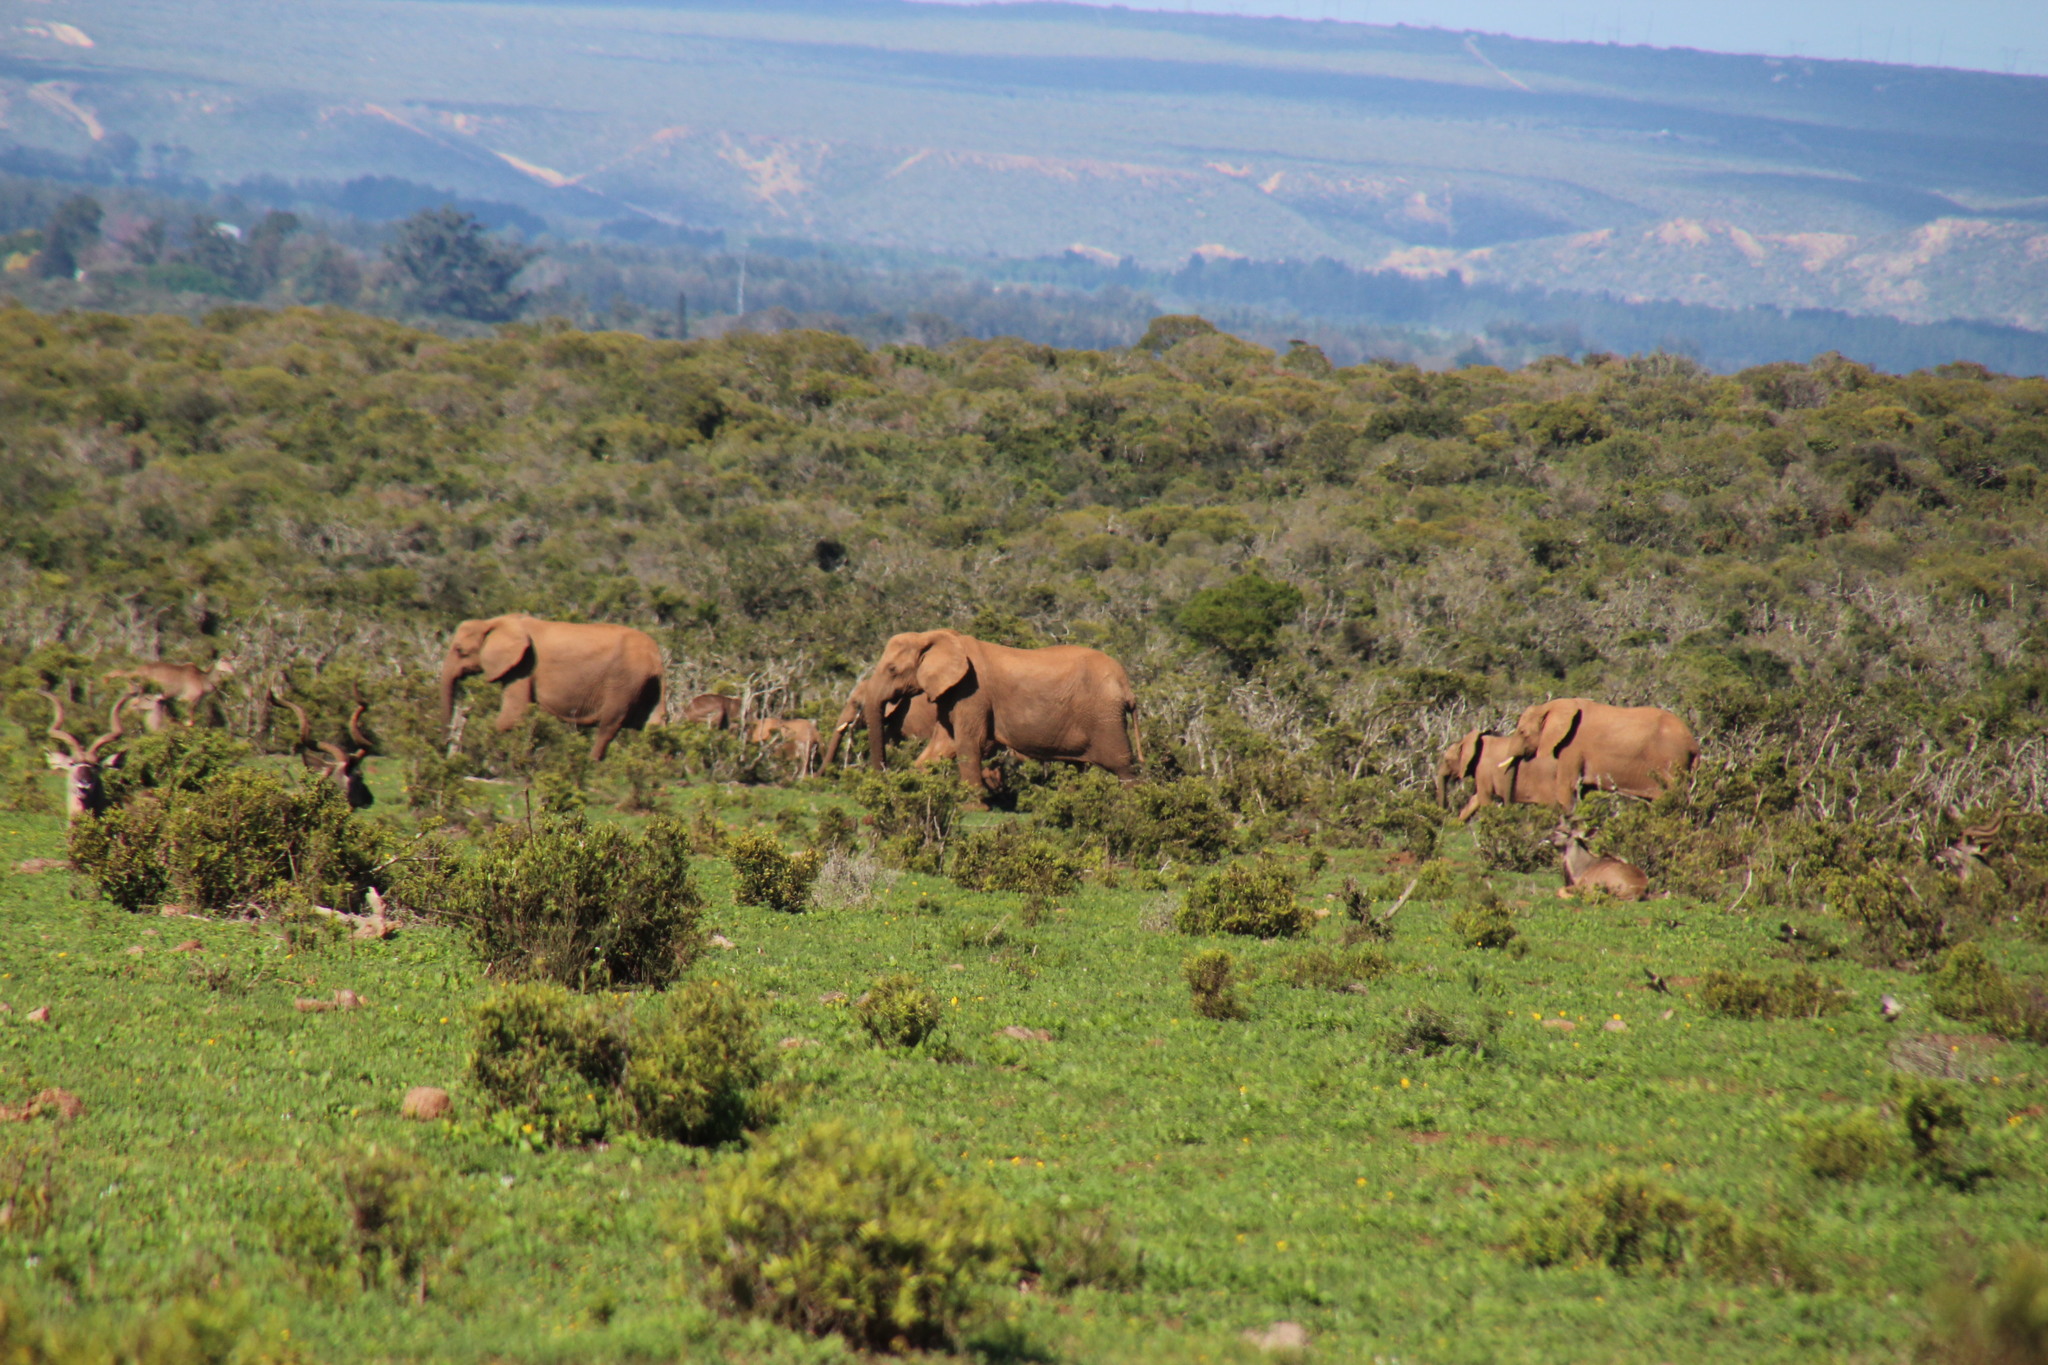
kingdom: Animalia
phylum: Chordata
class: Mammalia
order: Proboscidea
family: Elephantidae
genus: Loxodonta
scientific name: Loxodonta africana
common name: African elephant
